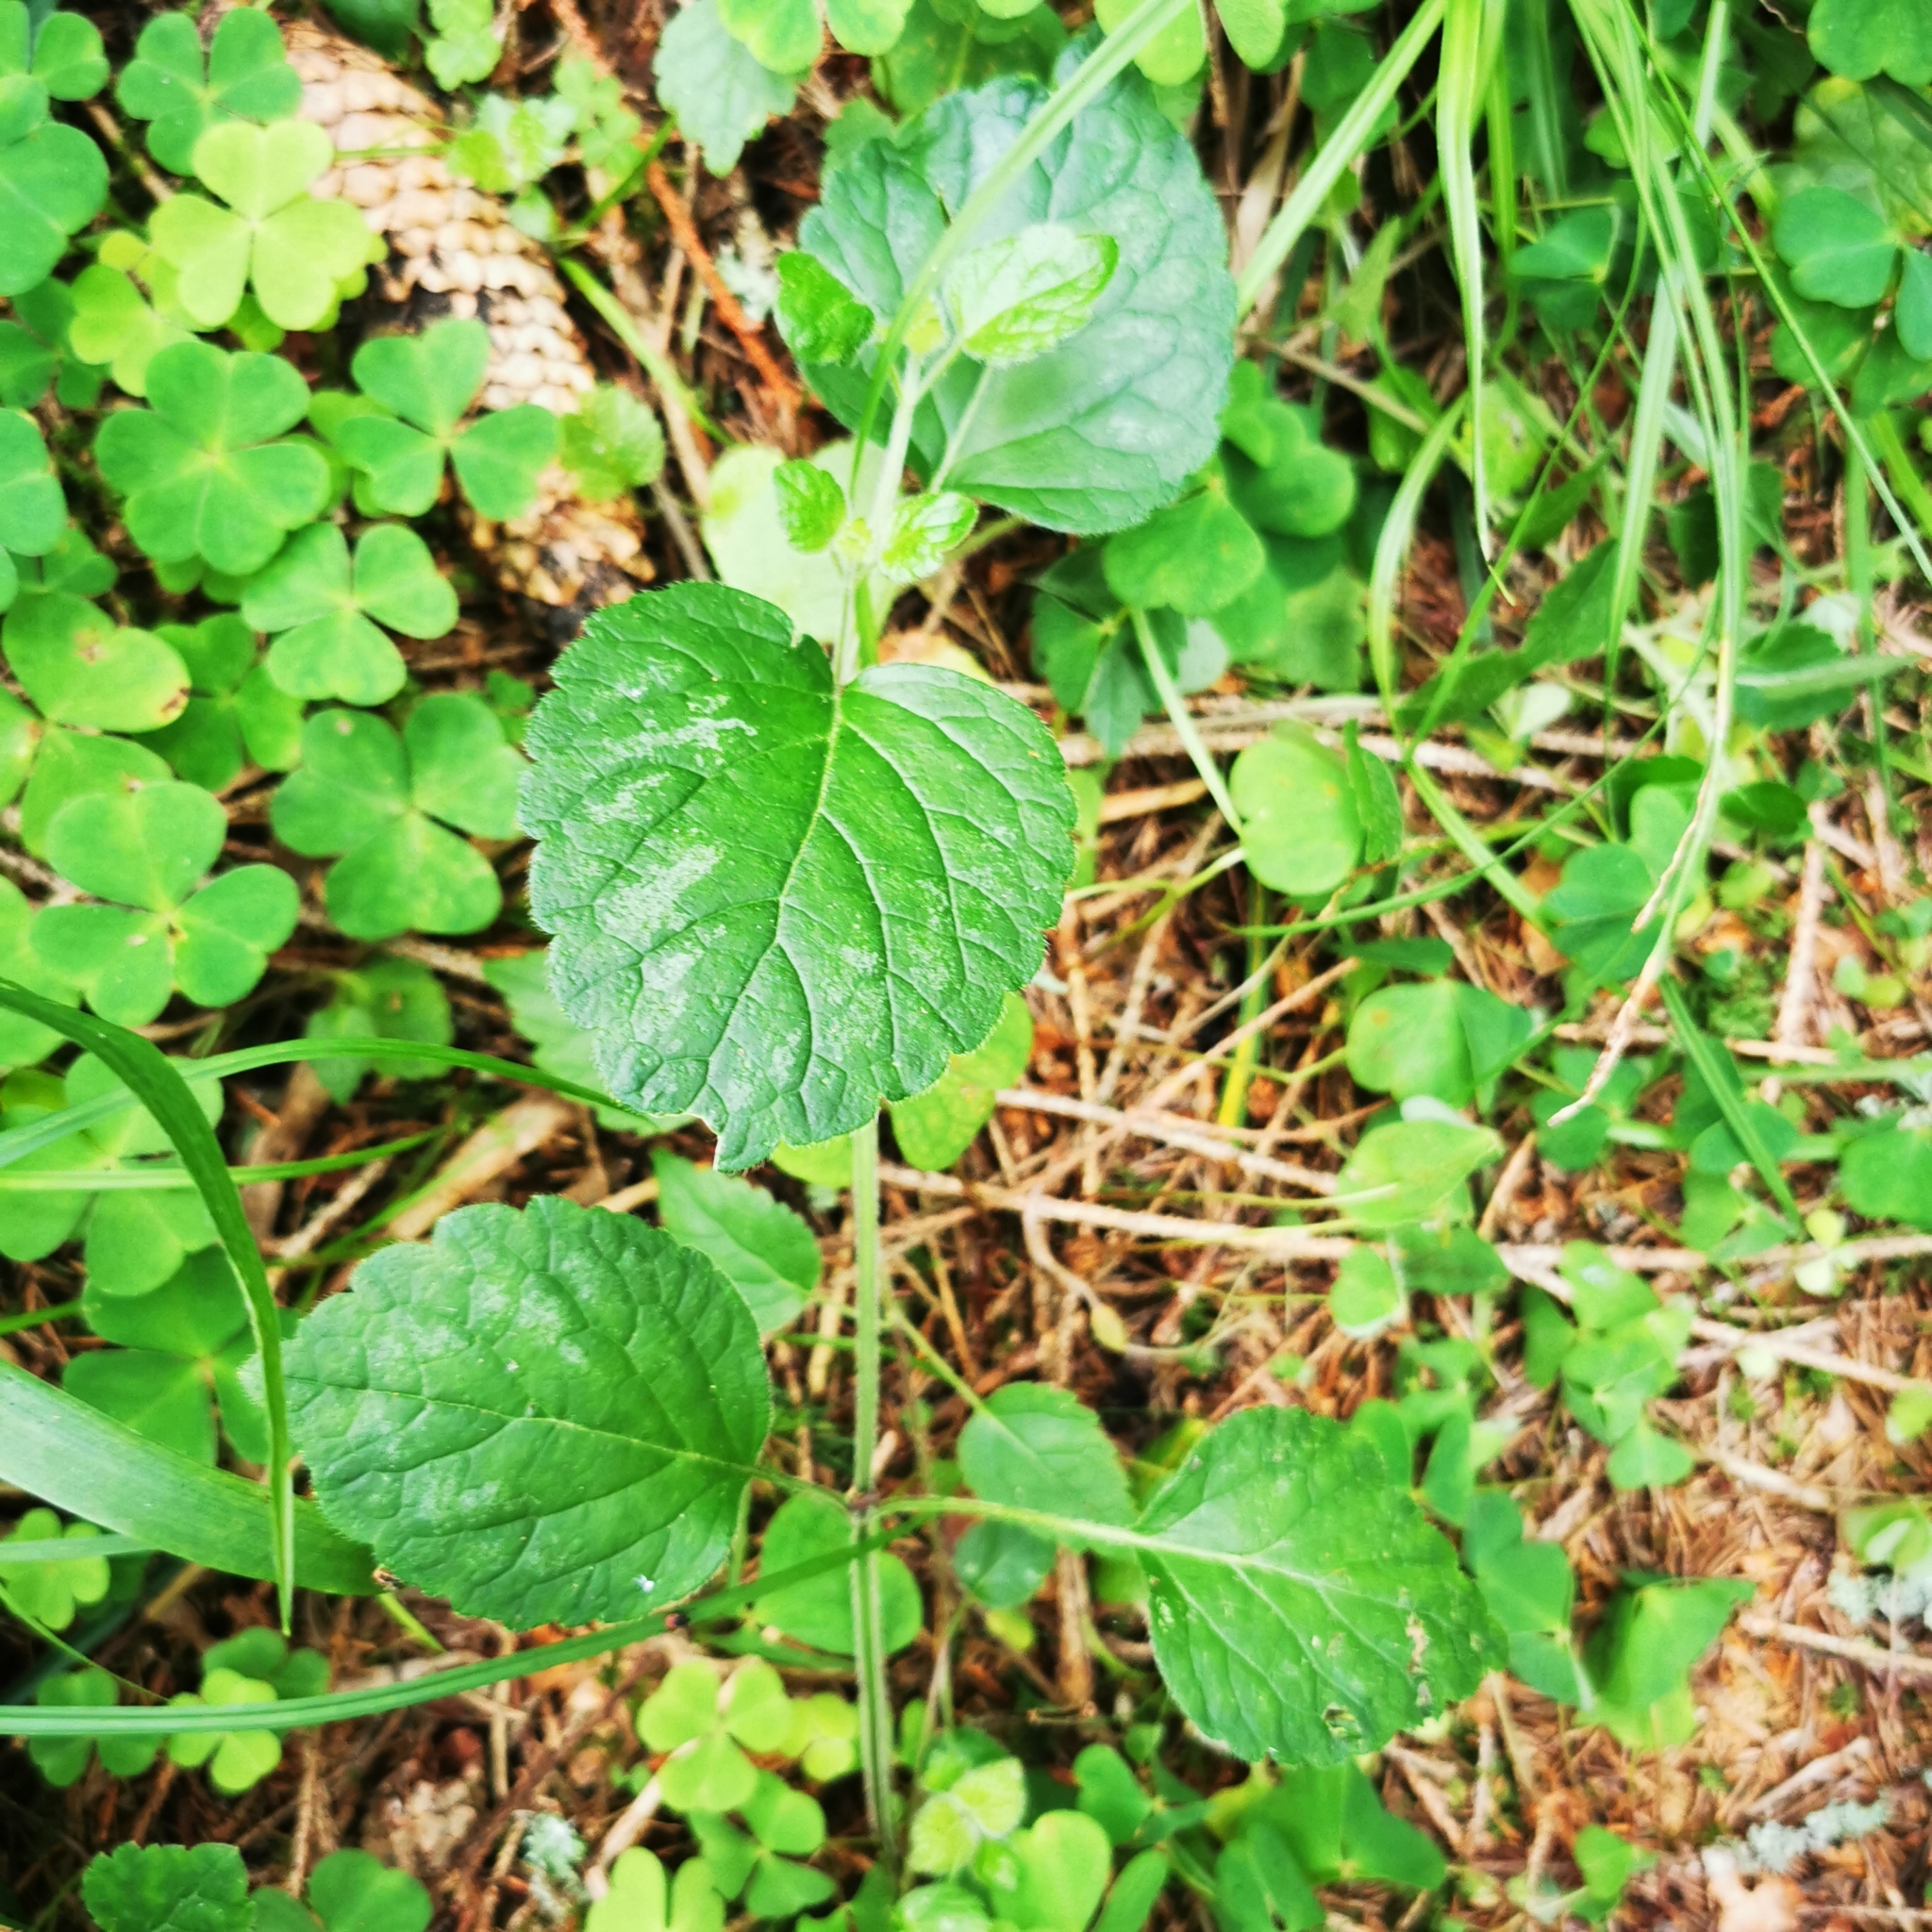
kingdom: Plantae
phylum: Tracheophyta
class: Magnoliopsida
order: Lamiales
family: Lamiaceae
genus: Lamium
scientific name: Lamium galeobdolon
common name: Yellow archangel
